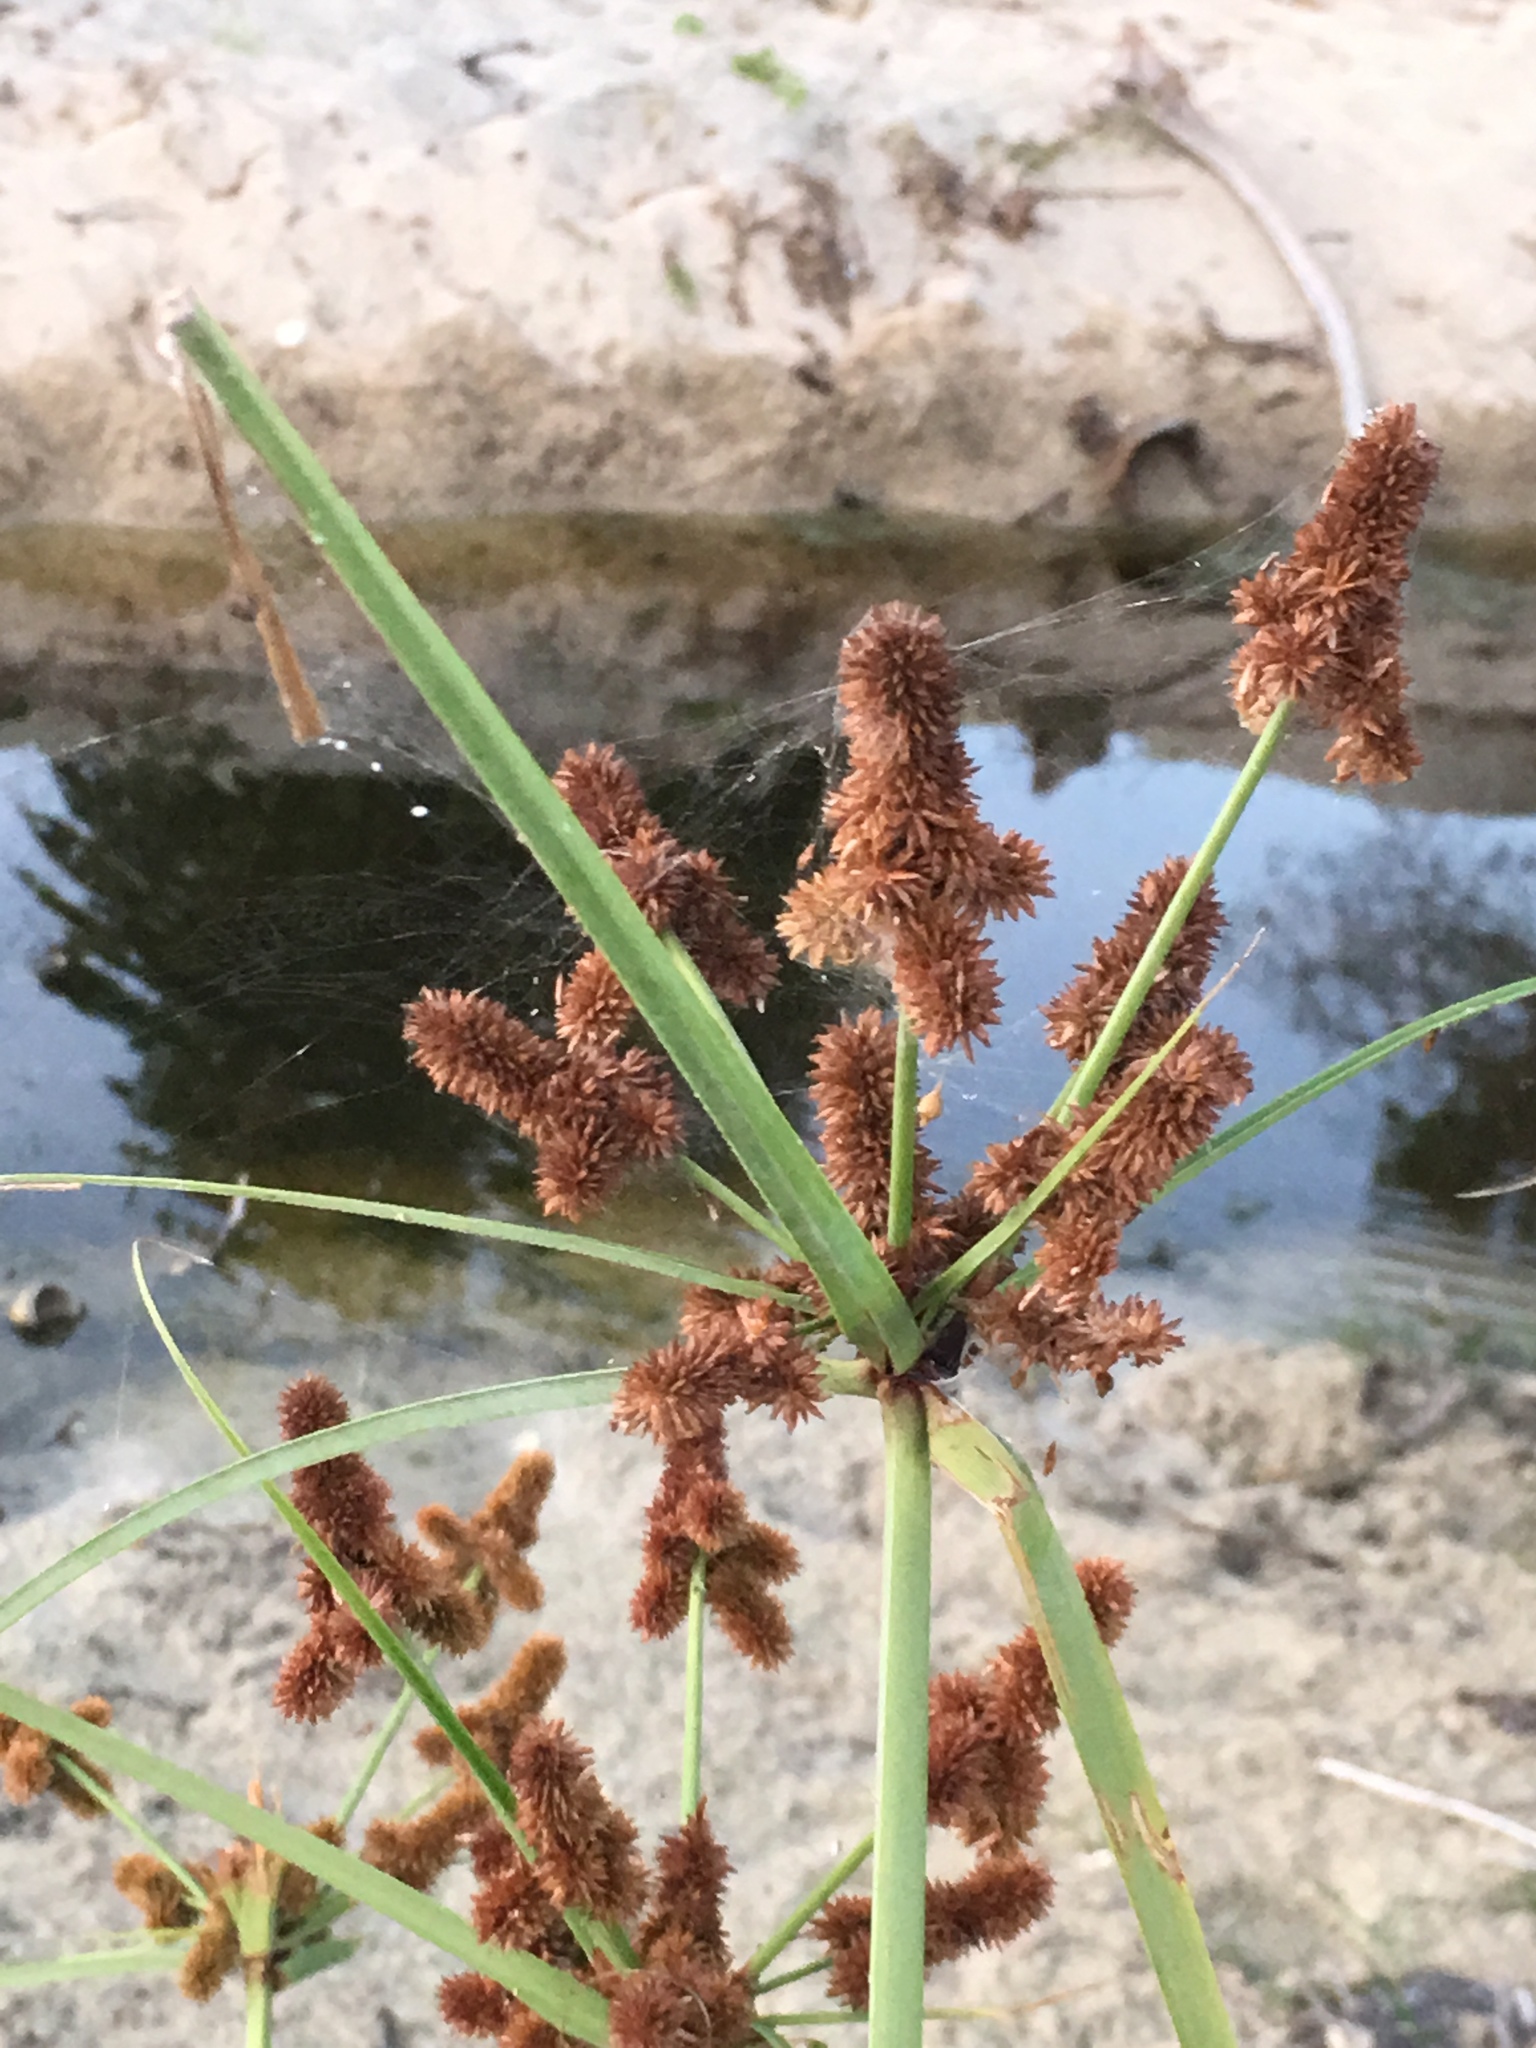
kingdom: Plantae
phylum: Tracheophyta
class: Liliopsida
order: Poales
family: Cyperaceae
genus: Cyperus
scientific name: Cyperus ligularis
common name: Swamp flat sedge
